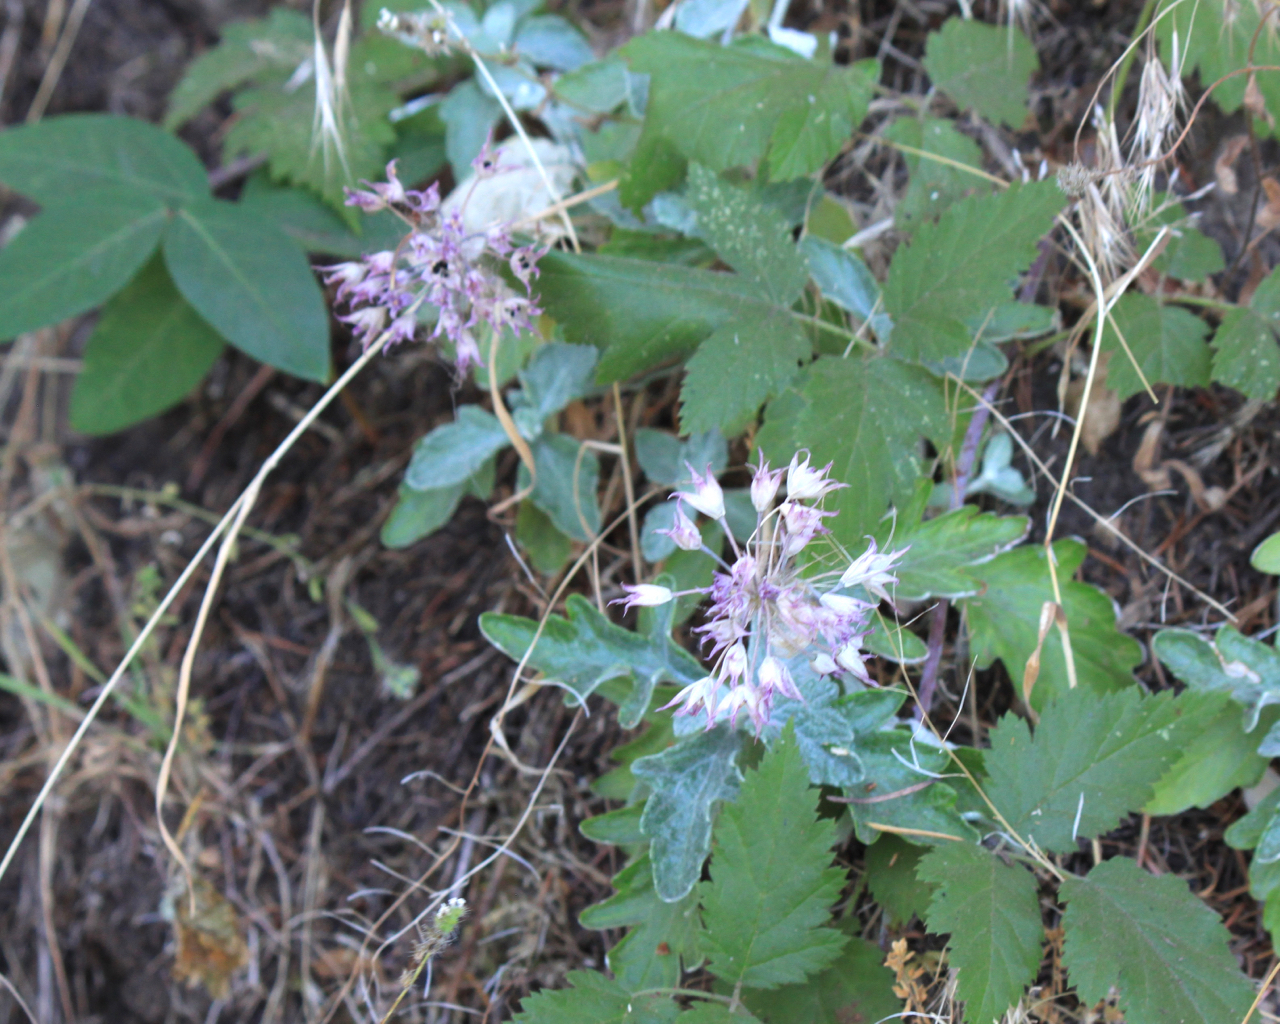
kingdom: Plantae
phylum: Tracheophyta
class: Liliopsida
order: Asparagales
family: Amaryllidaceae
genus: Allium
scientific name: Allium acuminatum
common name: Hooker's onion
